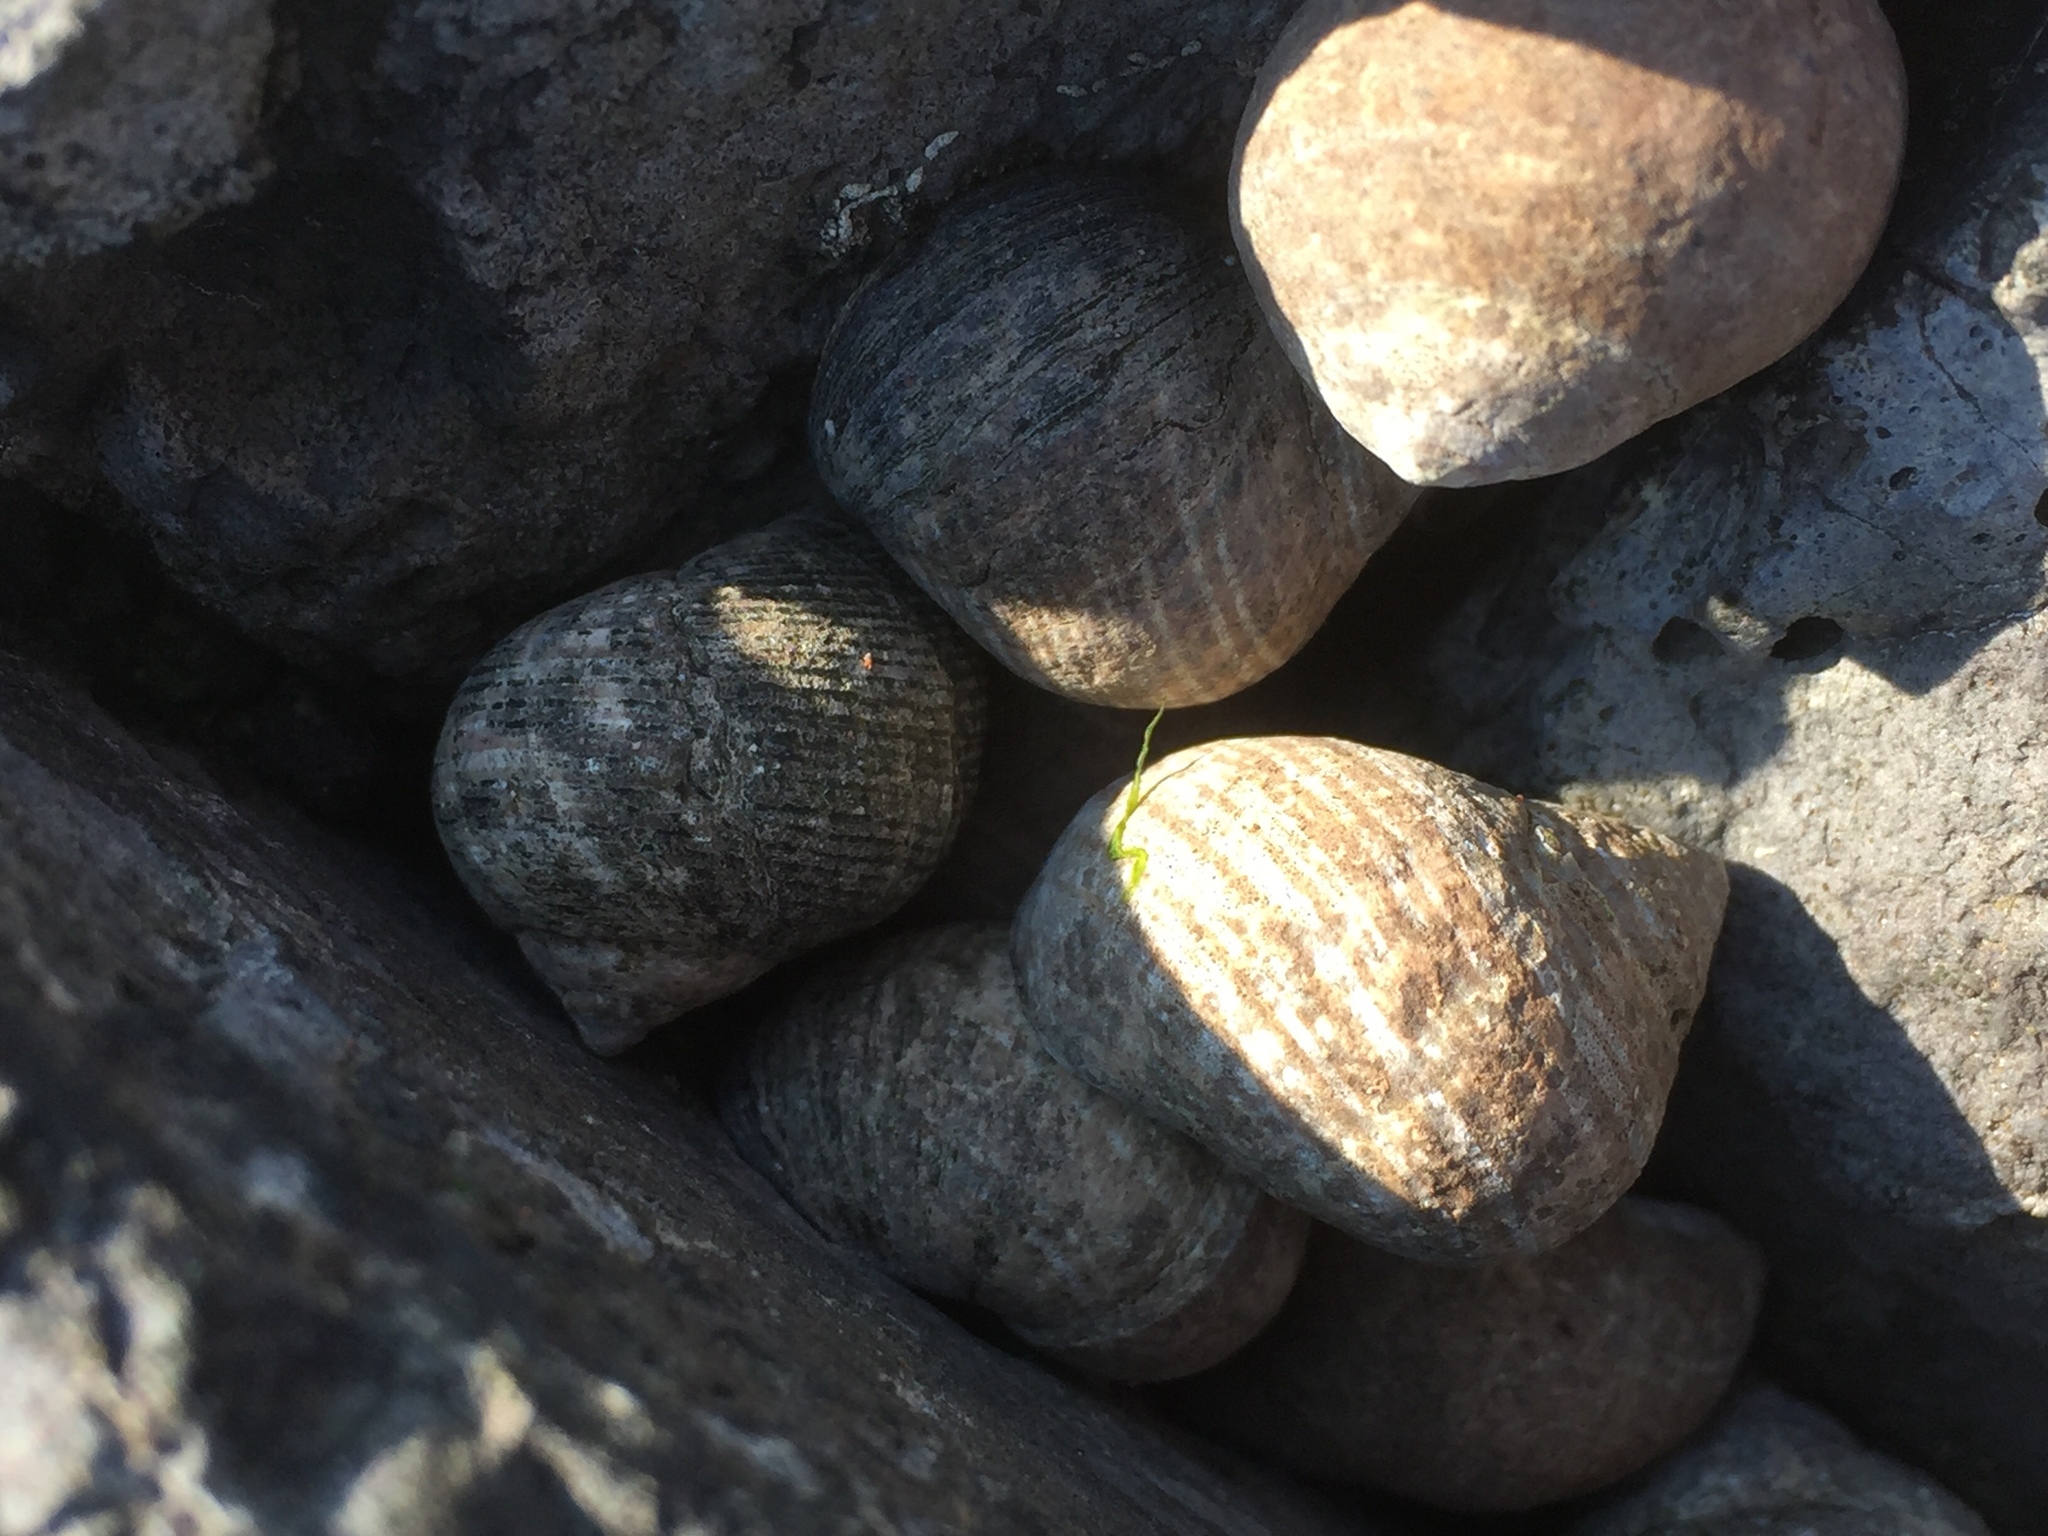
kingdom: Animalia
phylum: Mollusca
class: Gastropoda
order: Littorinimorpha
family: Littorinidae
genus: Littorina
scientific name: Littorina littorea
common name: Common periwinkle
